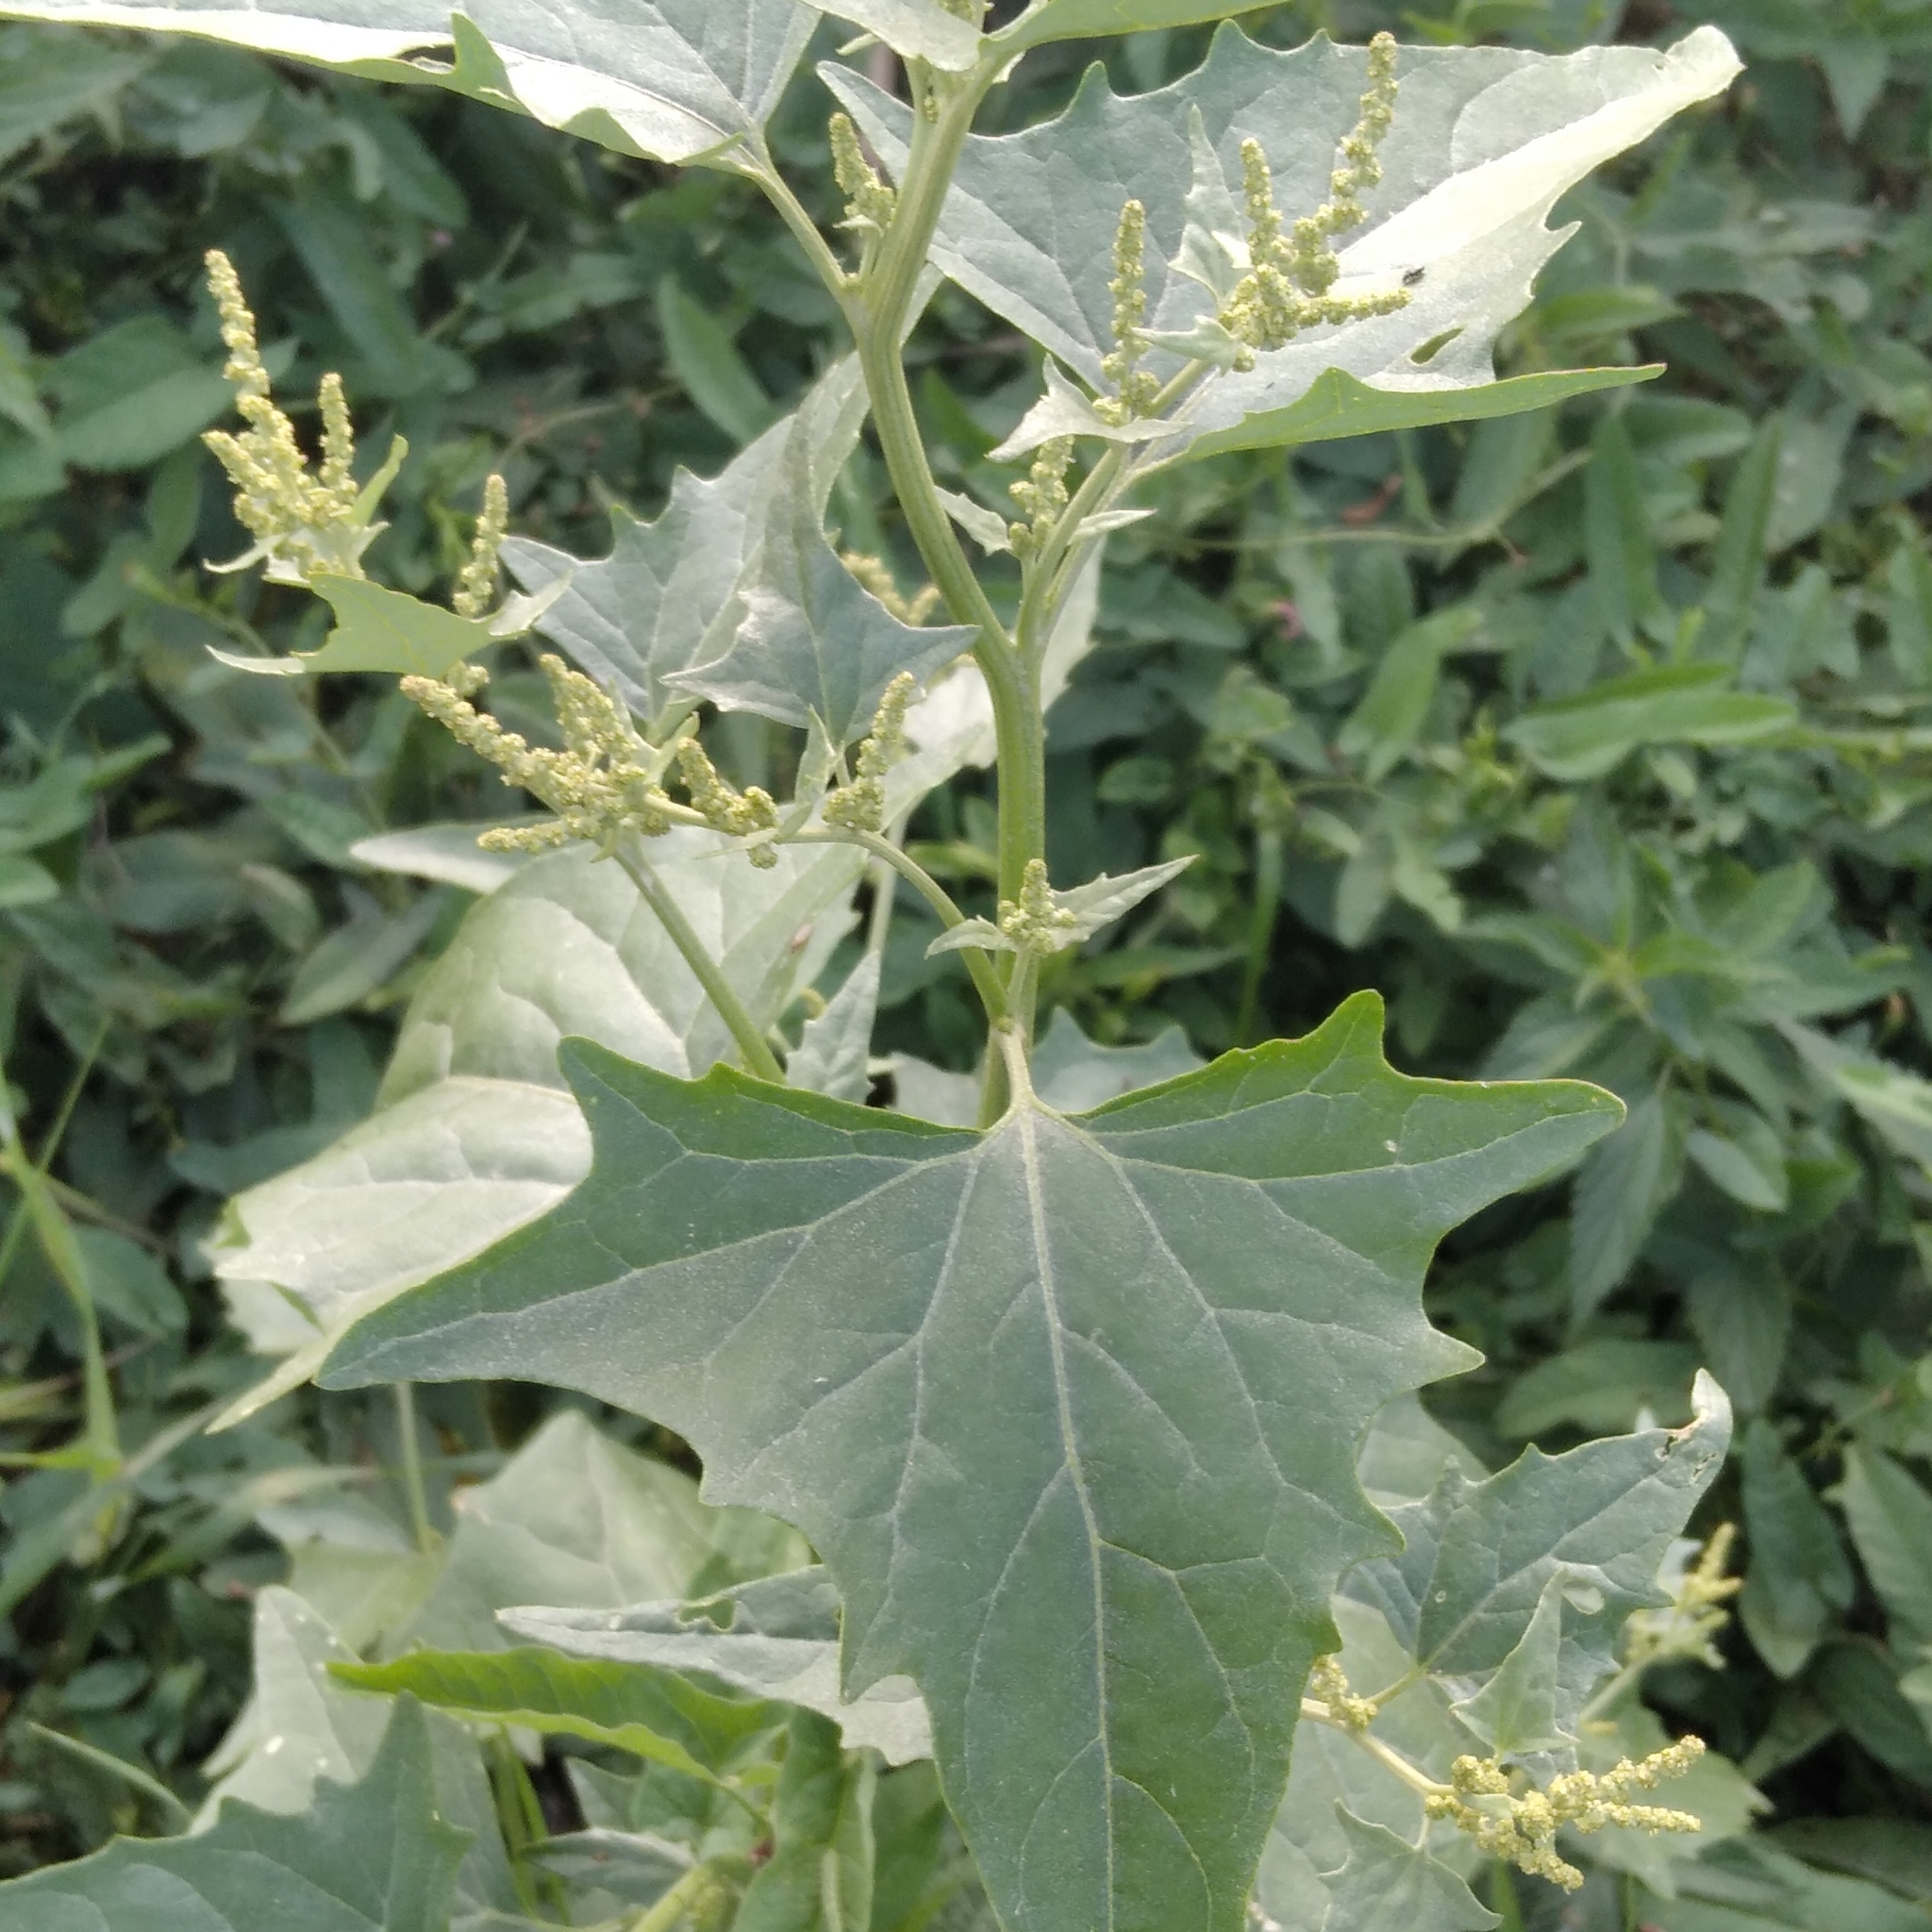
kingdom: Plantae
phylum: Tracheophyta
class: Magnoliopsida
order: Caryophyllales
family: Amaranthaceae
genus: Atriplex
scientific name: Atriplex sagittata
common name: Purple orache
